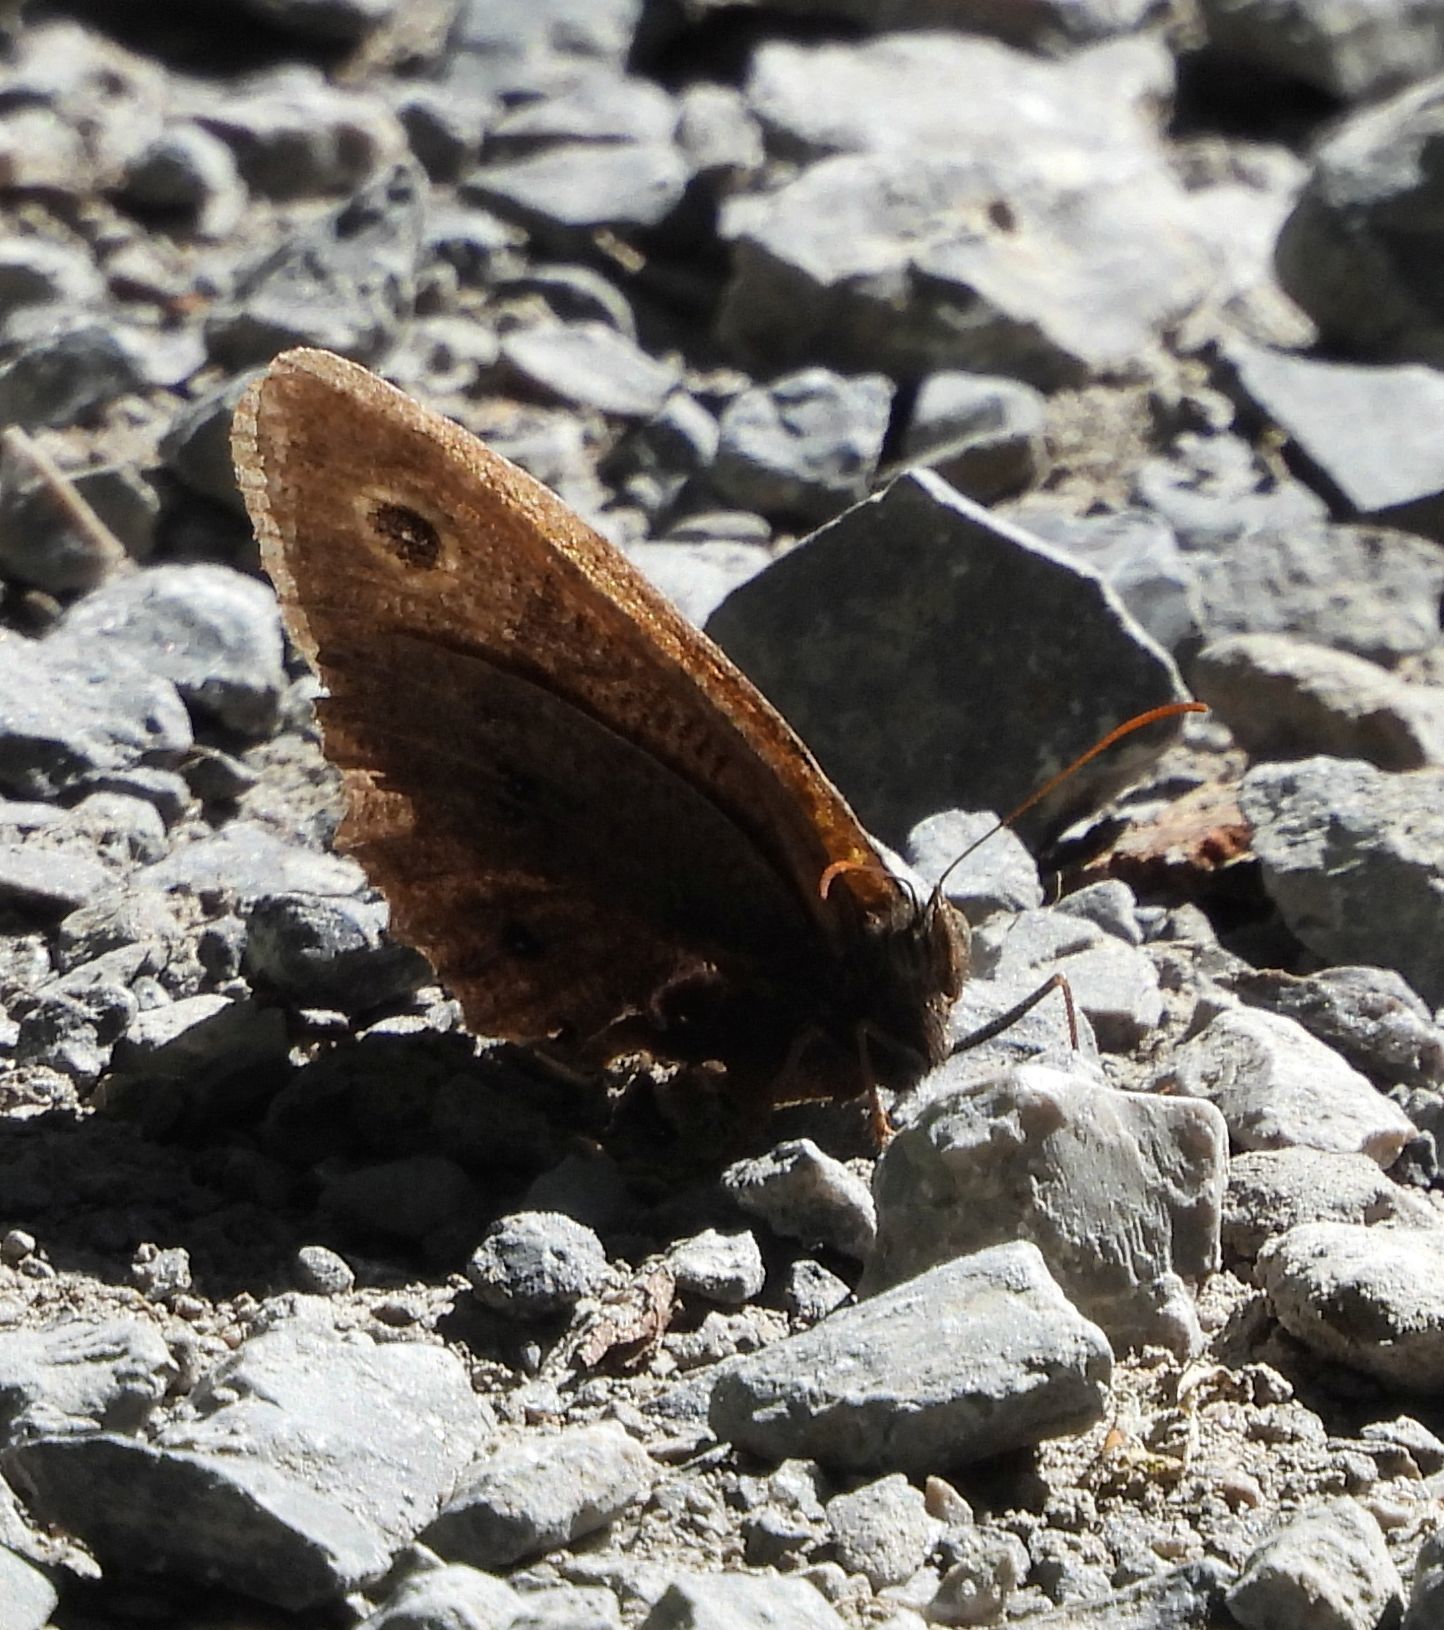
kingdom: Animalia
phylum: Arthropoda
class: Insecta
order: Lepidoptera
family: Nymphalidae
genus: Cercyonis
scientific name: Cercyonis pegala
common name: Common wood-nymph
